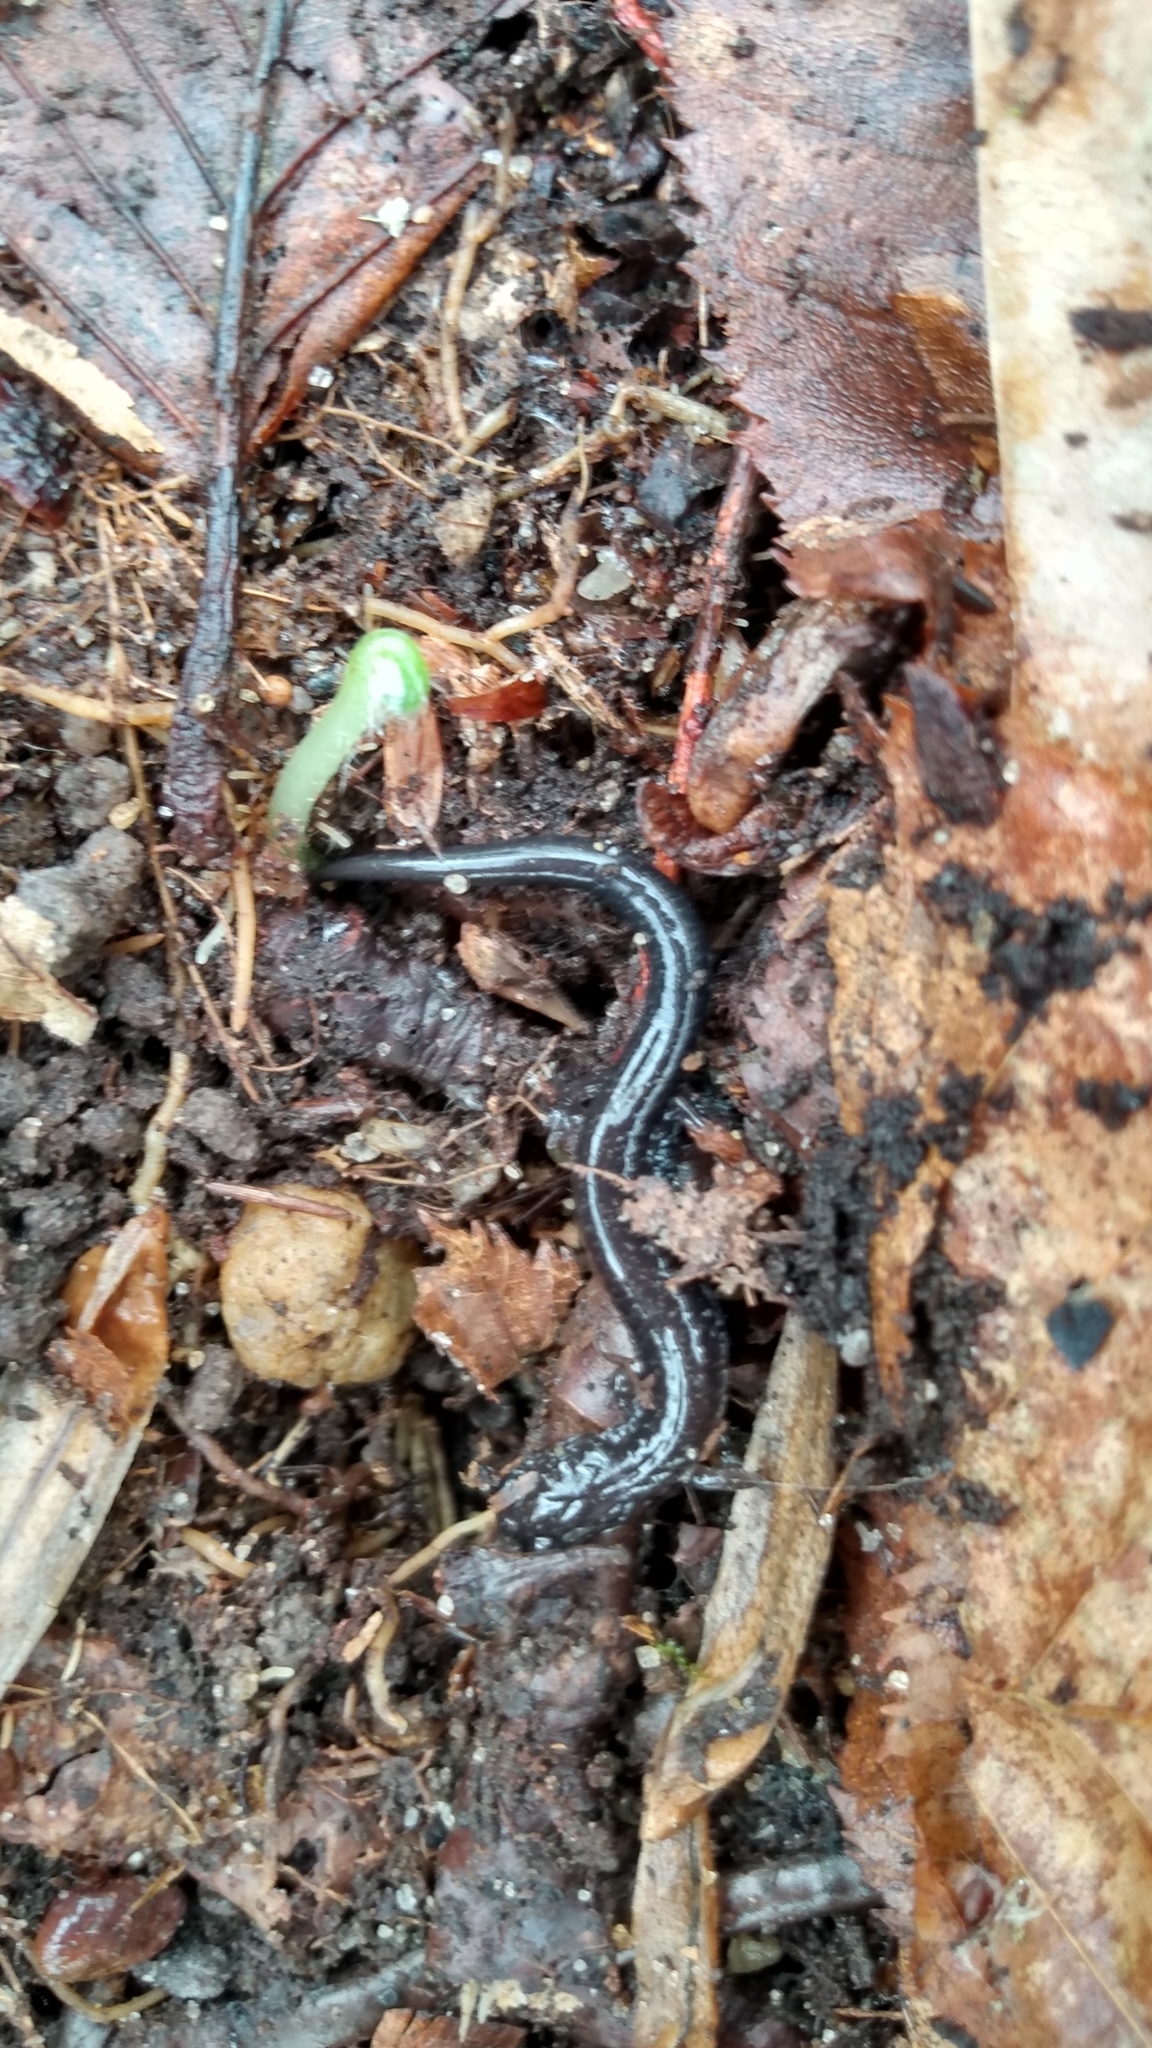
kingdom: Animalia
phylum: Chordata
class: Amphibia
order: Caudata
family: Plethodontidae
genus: Plethodon
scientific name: Plethodon cinereus
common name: Redback salamander
